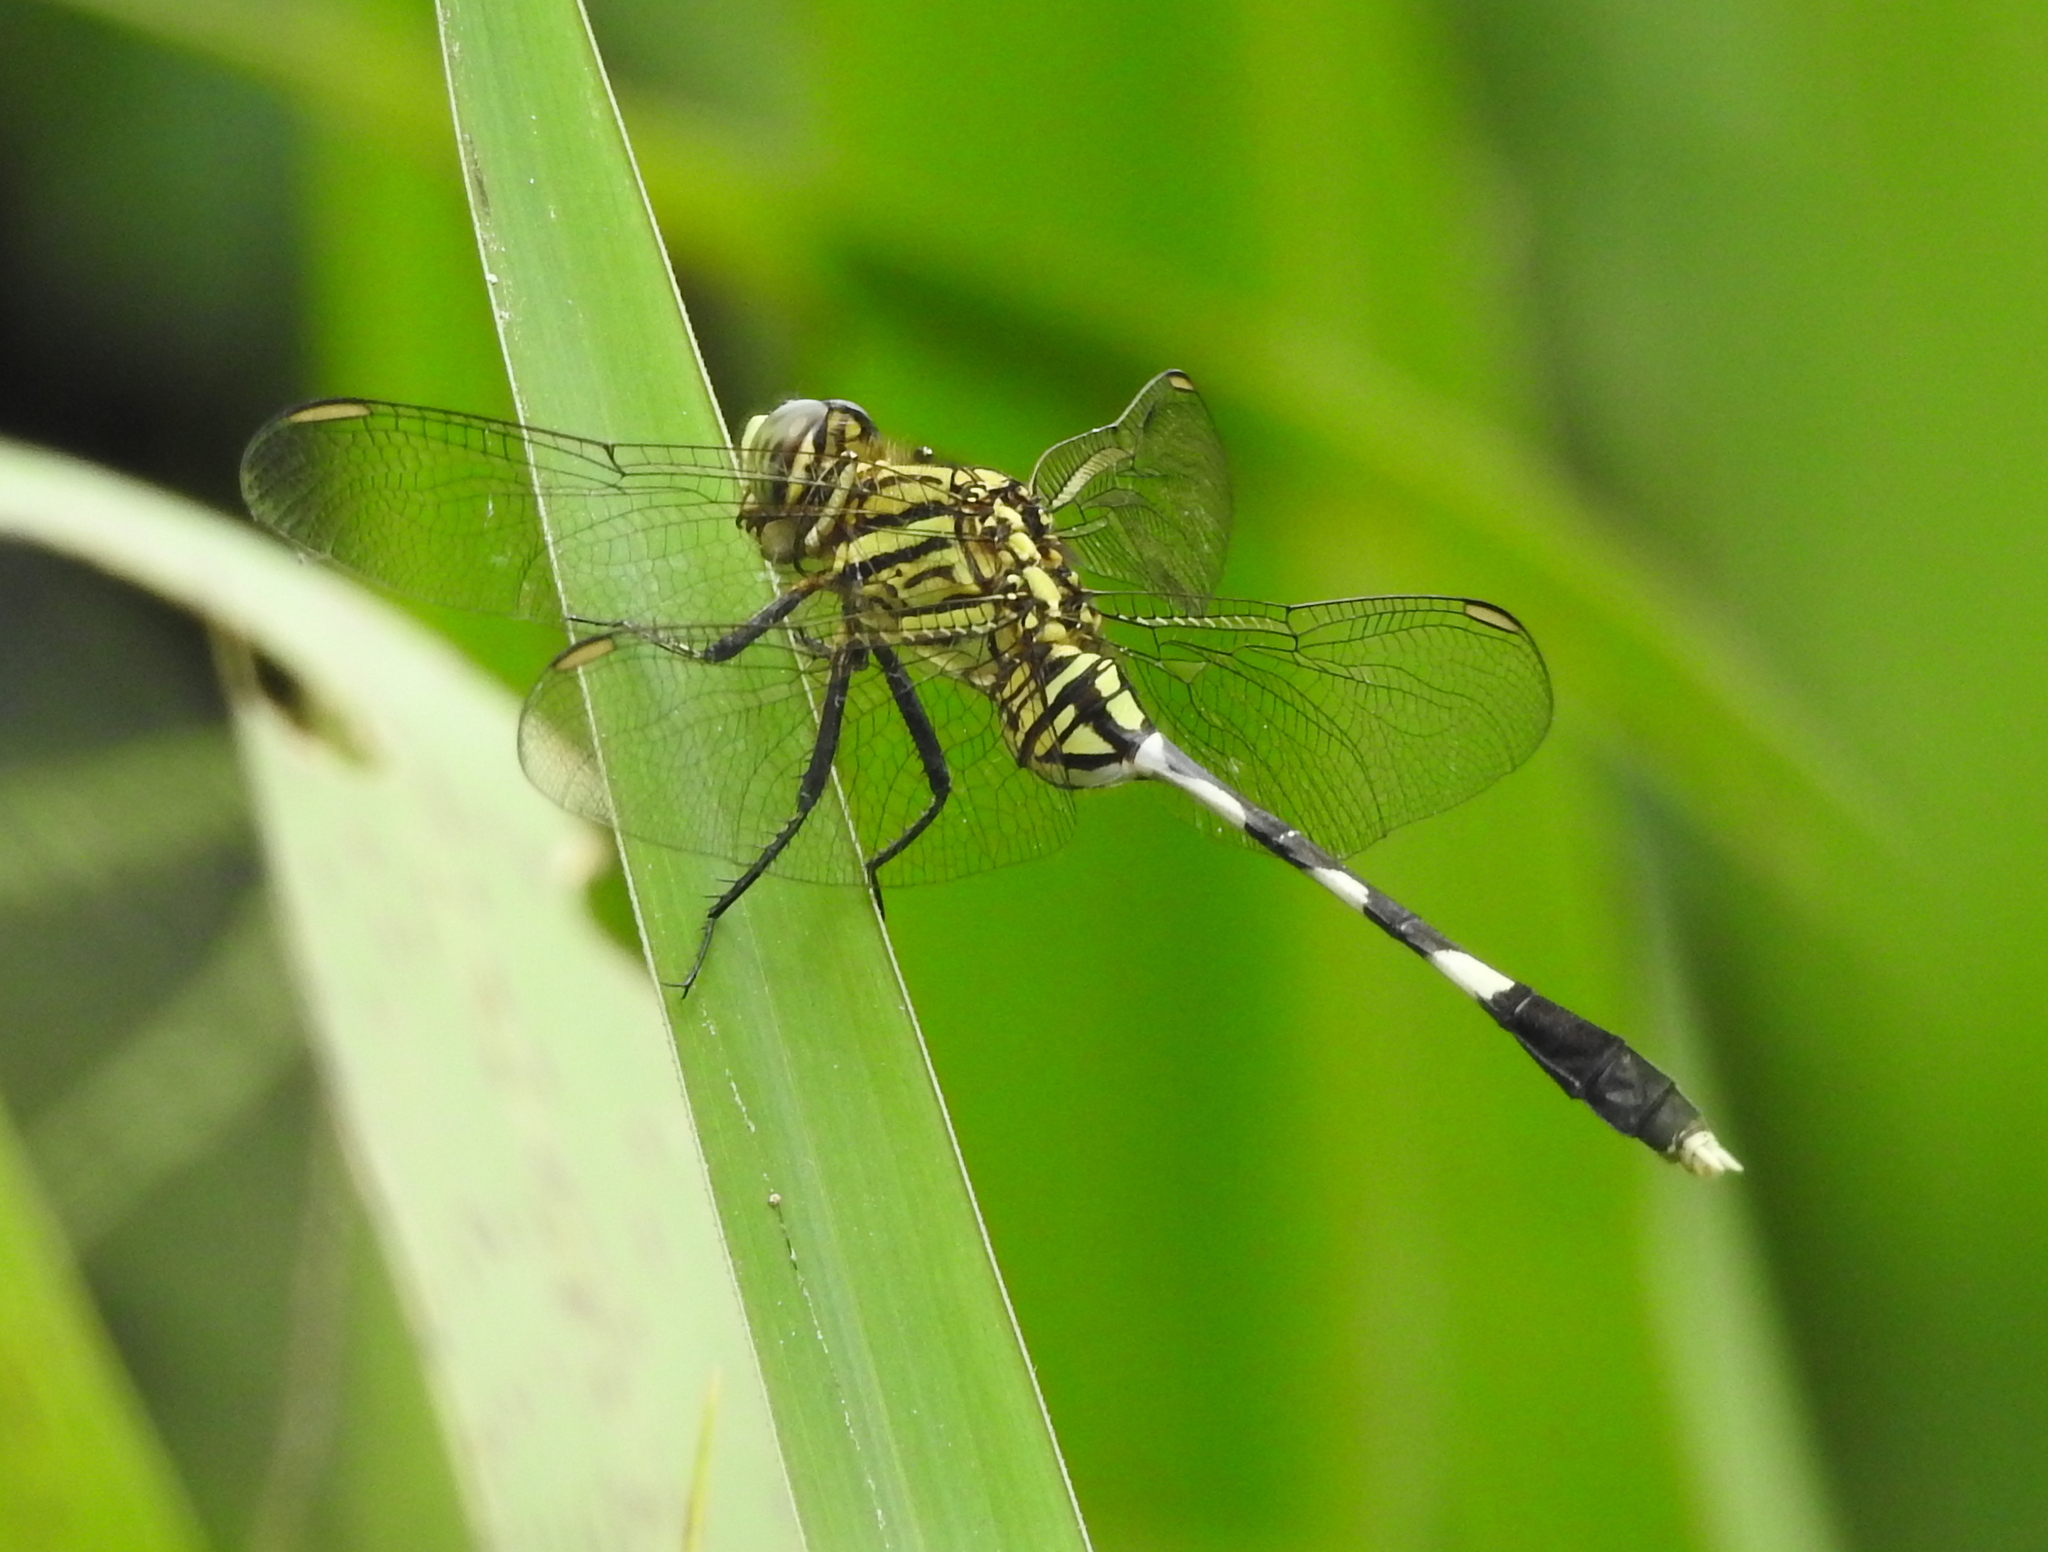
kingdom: Animalia
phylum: Arthropoda
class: Insecta
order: Odonata
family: Libellulidae
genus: Orthetrum
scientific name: Orthetrum sabina
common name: Slender skimmer
